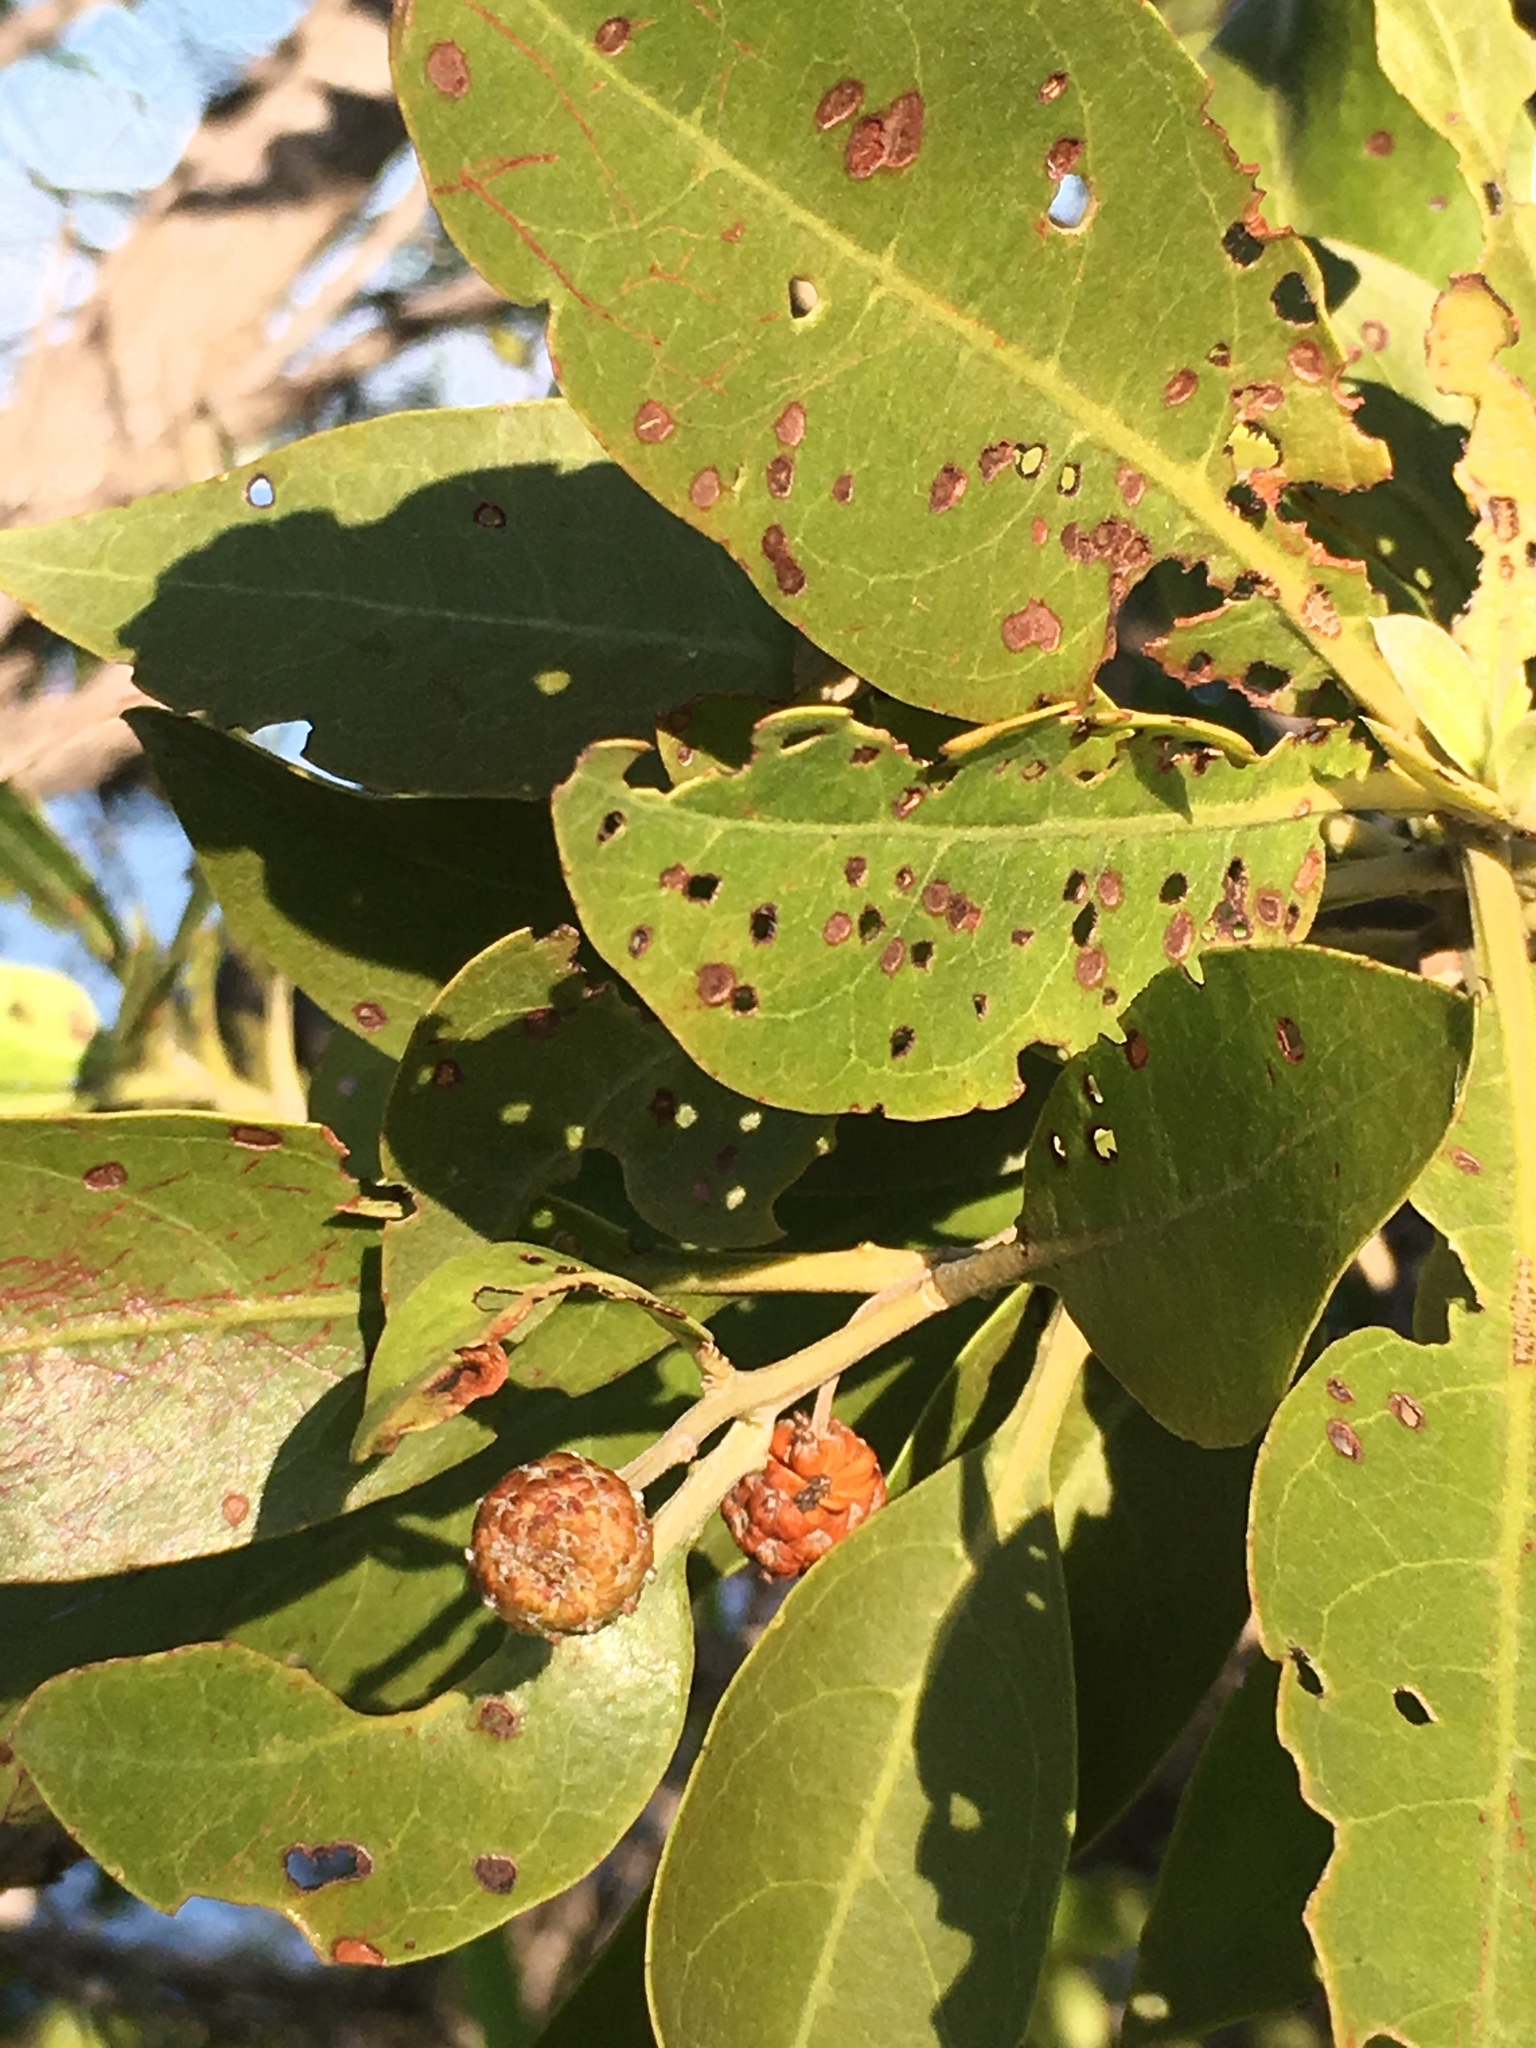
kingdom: Plantae
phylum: Tracheophyta
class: Magnoliopsida
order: Myrtales
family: Combretaceae
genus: Conocarpus
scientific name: Conocarpus erectus
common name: Button mangrove
